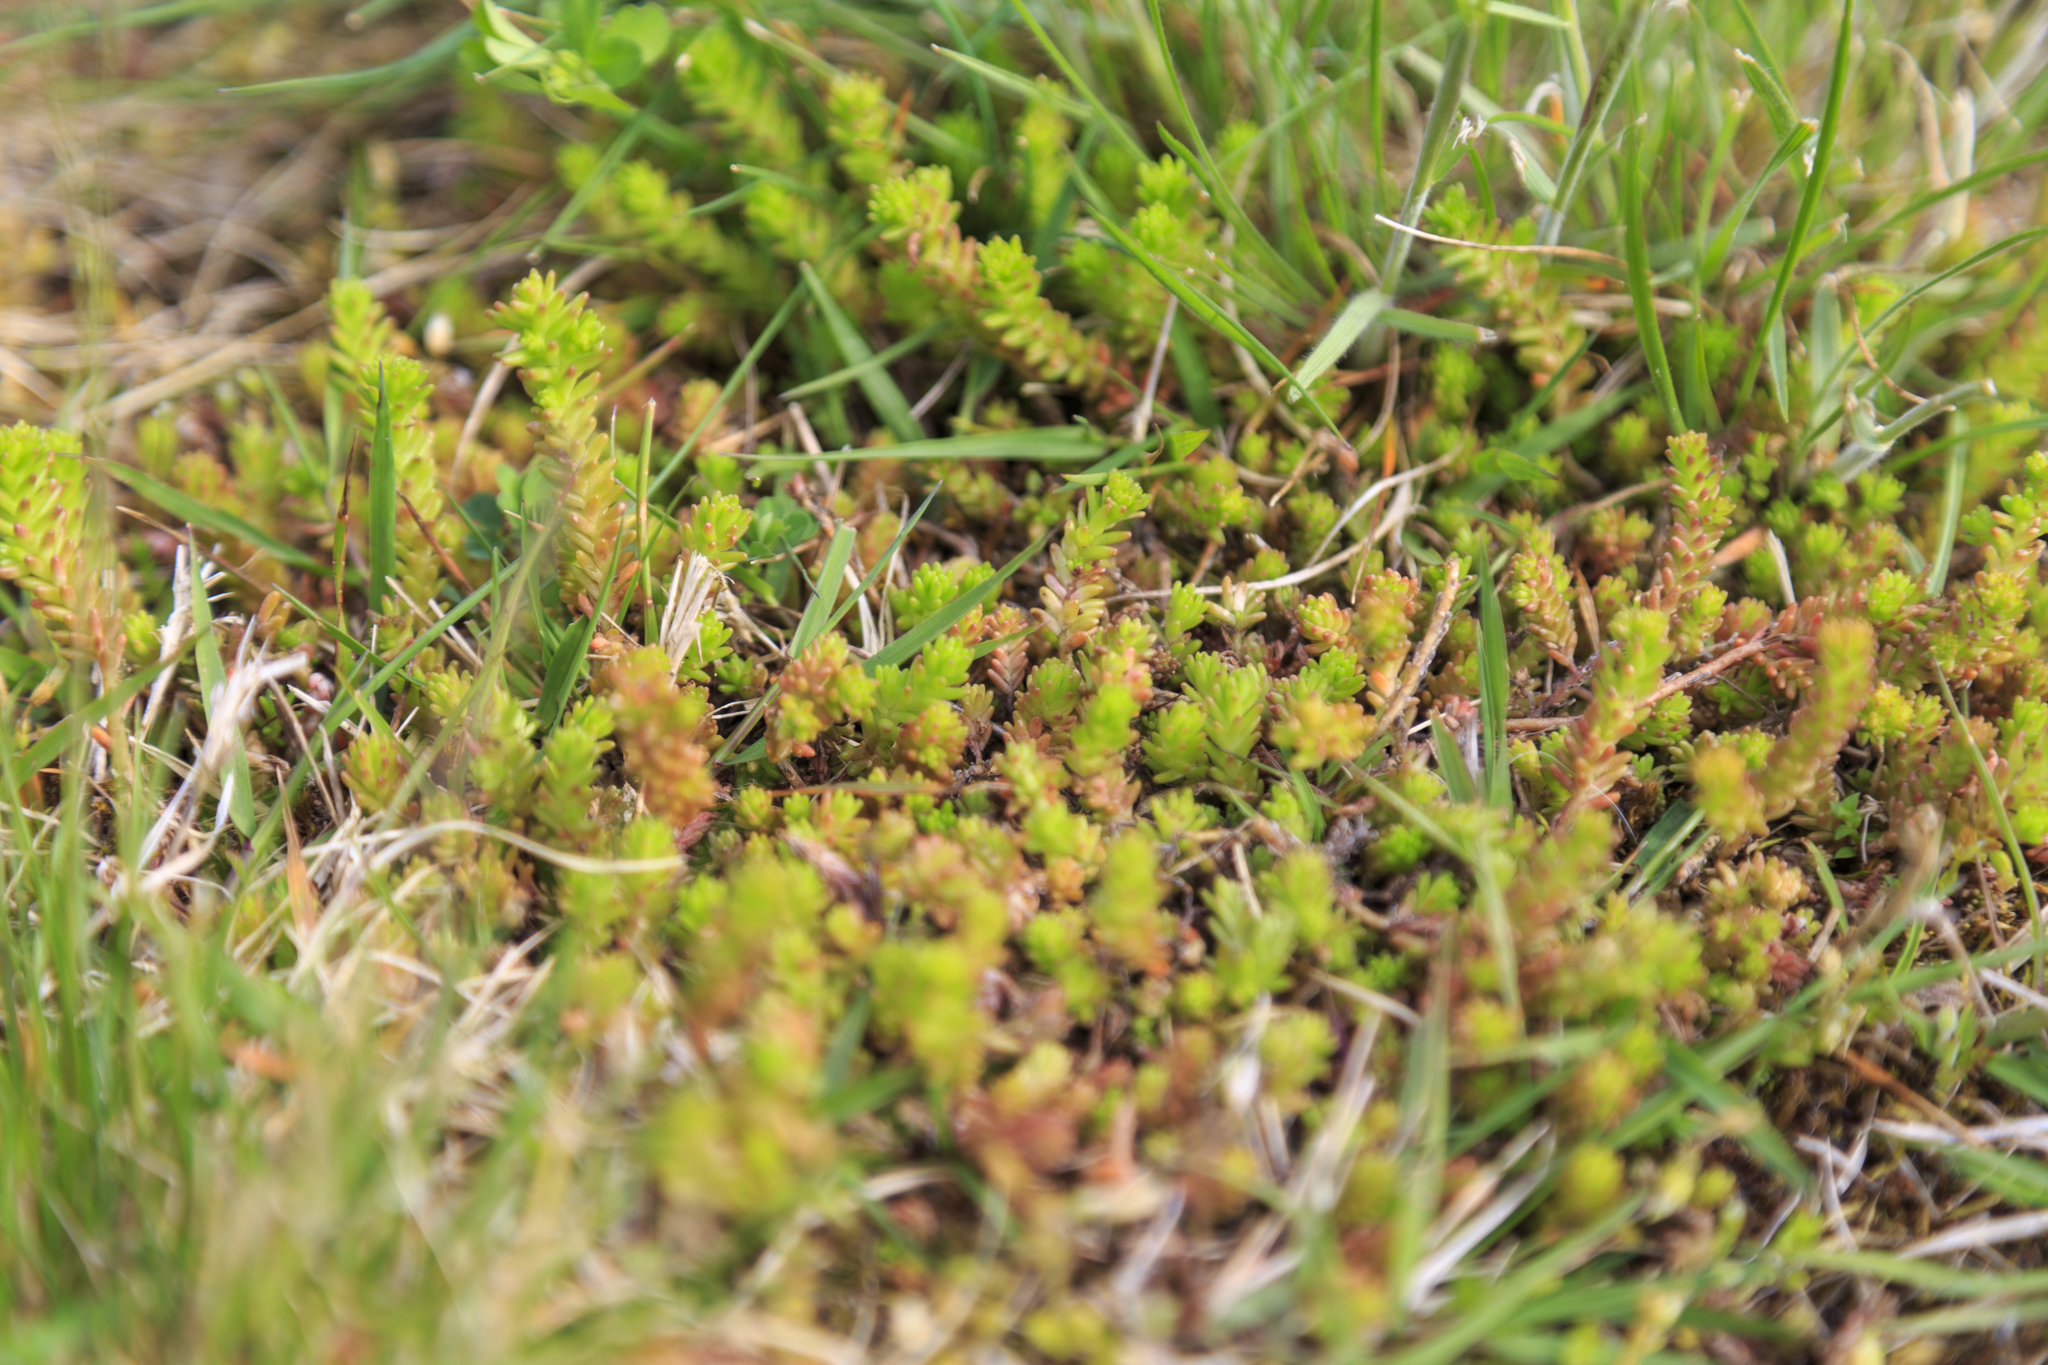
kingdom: Plantae
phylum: Tracheophyta
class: Magnoliopsida
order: Saxifragales
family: Crassulaceae
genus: Sedum
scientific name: Sedum sexangulare
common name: Tasteless stonecrop
